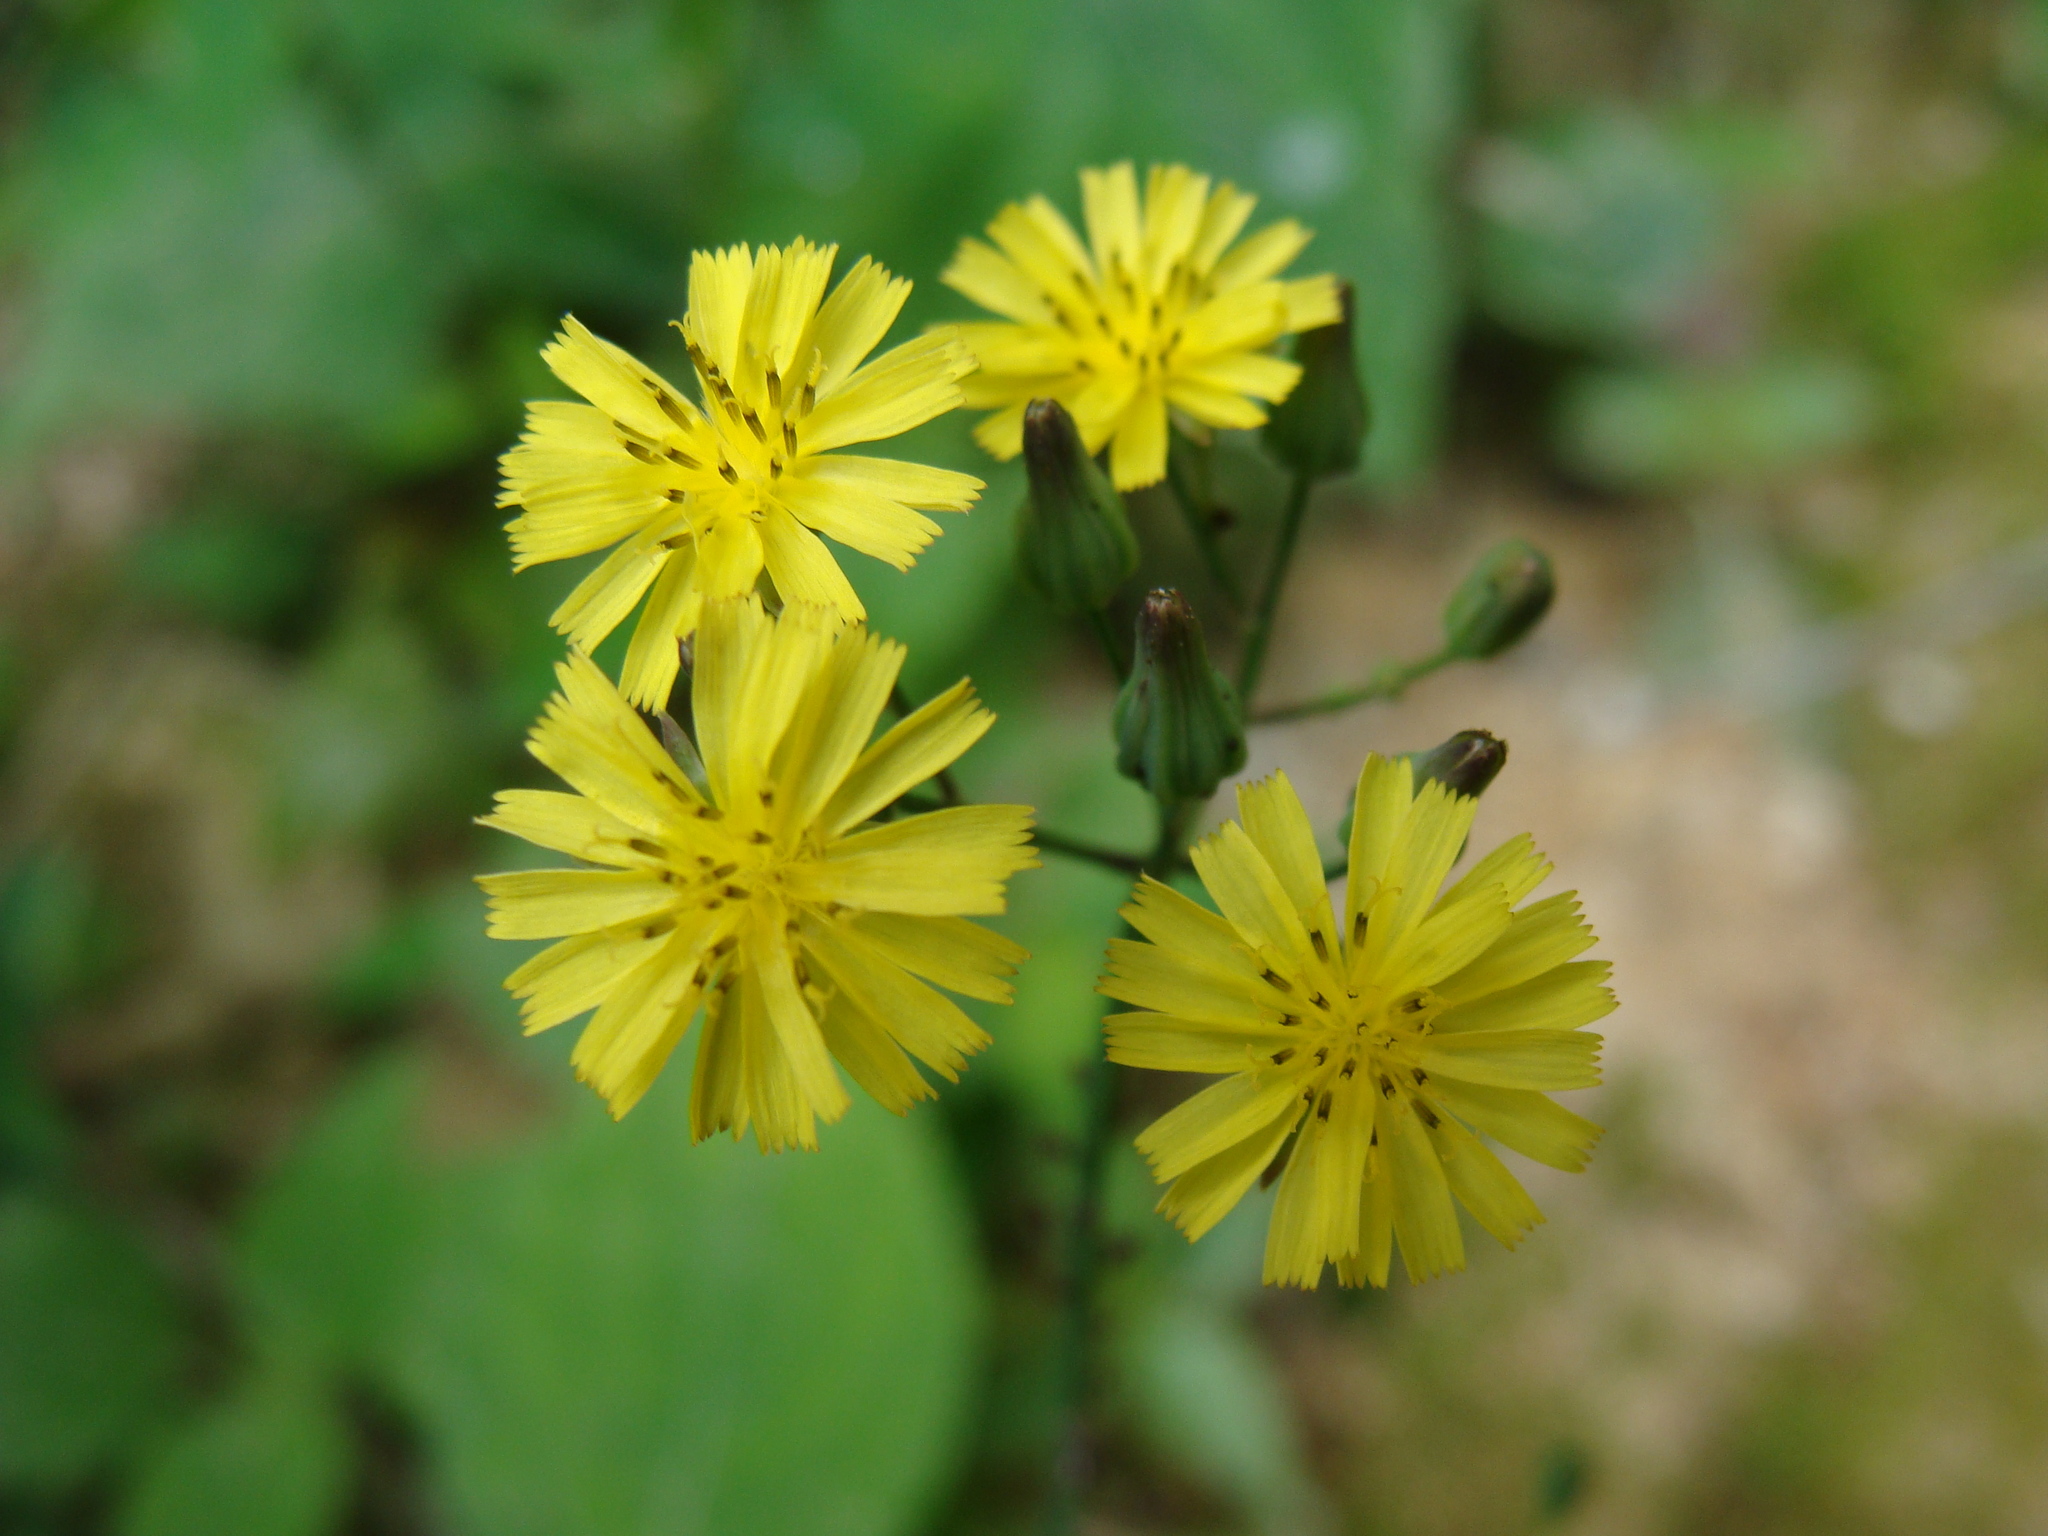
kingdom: Plantae
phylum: Tracheophyta
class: Magnoliopsida
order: Asterales
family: Asteraceae
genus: Youngia
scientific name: Youngia japonica
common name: Oriental false hawksbeard
